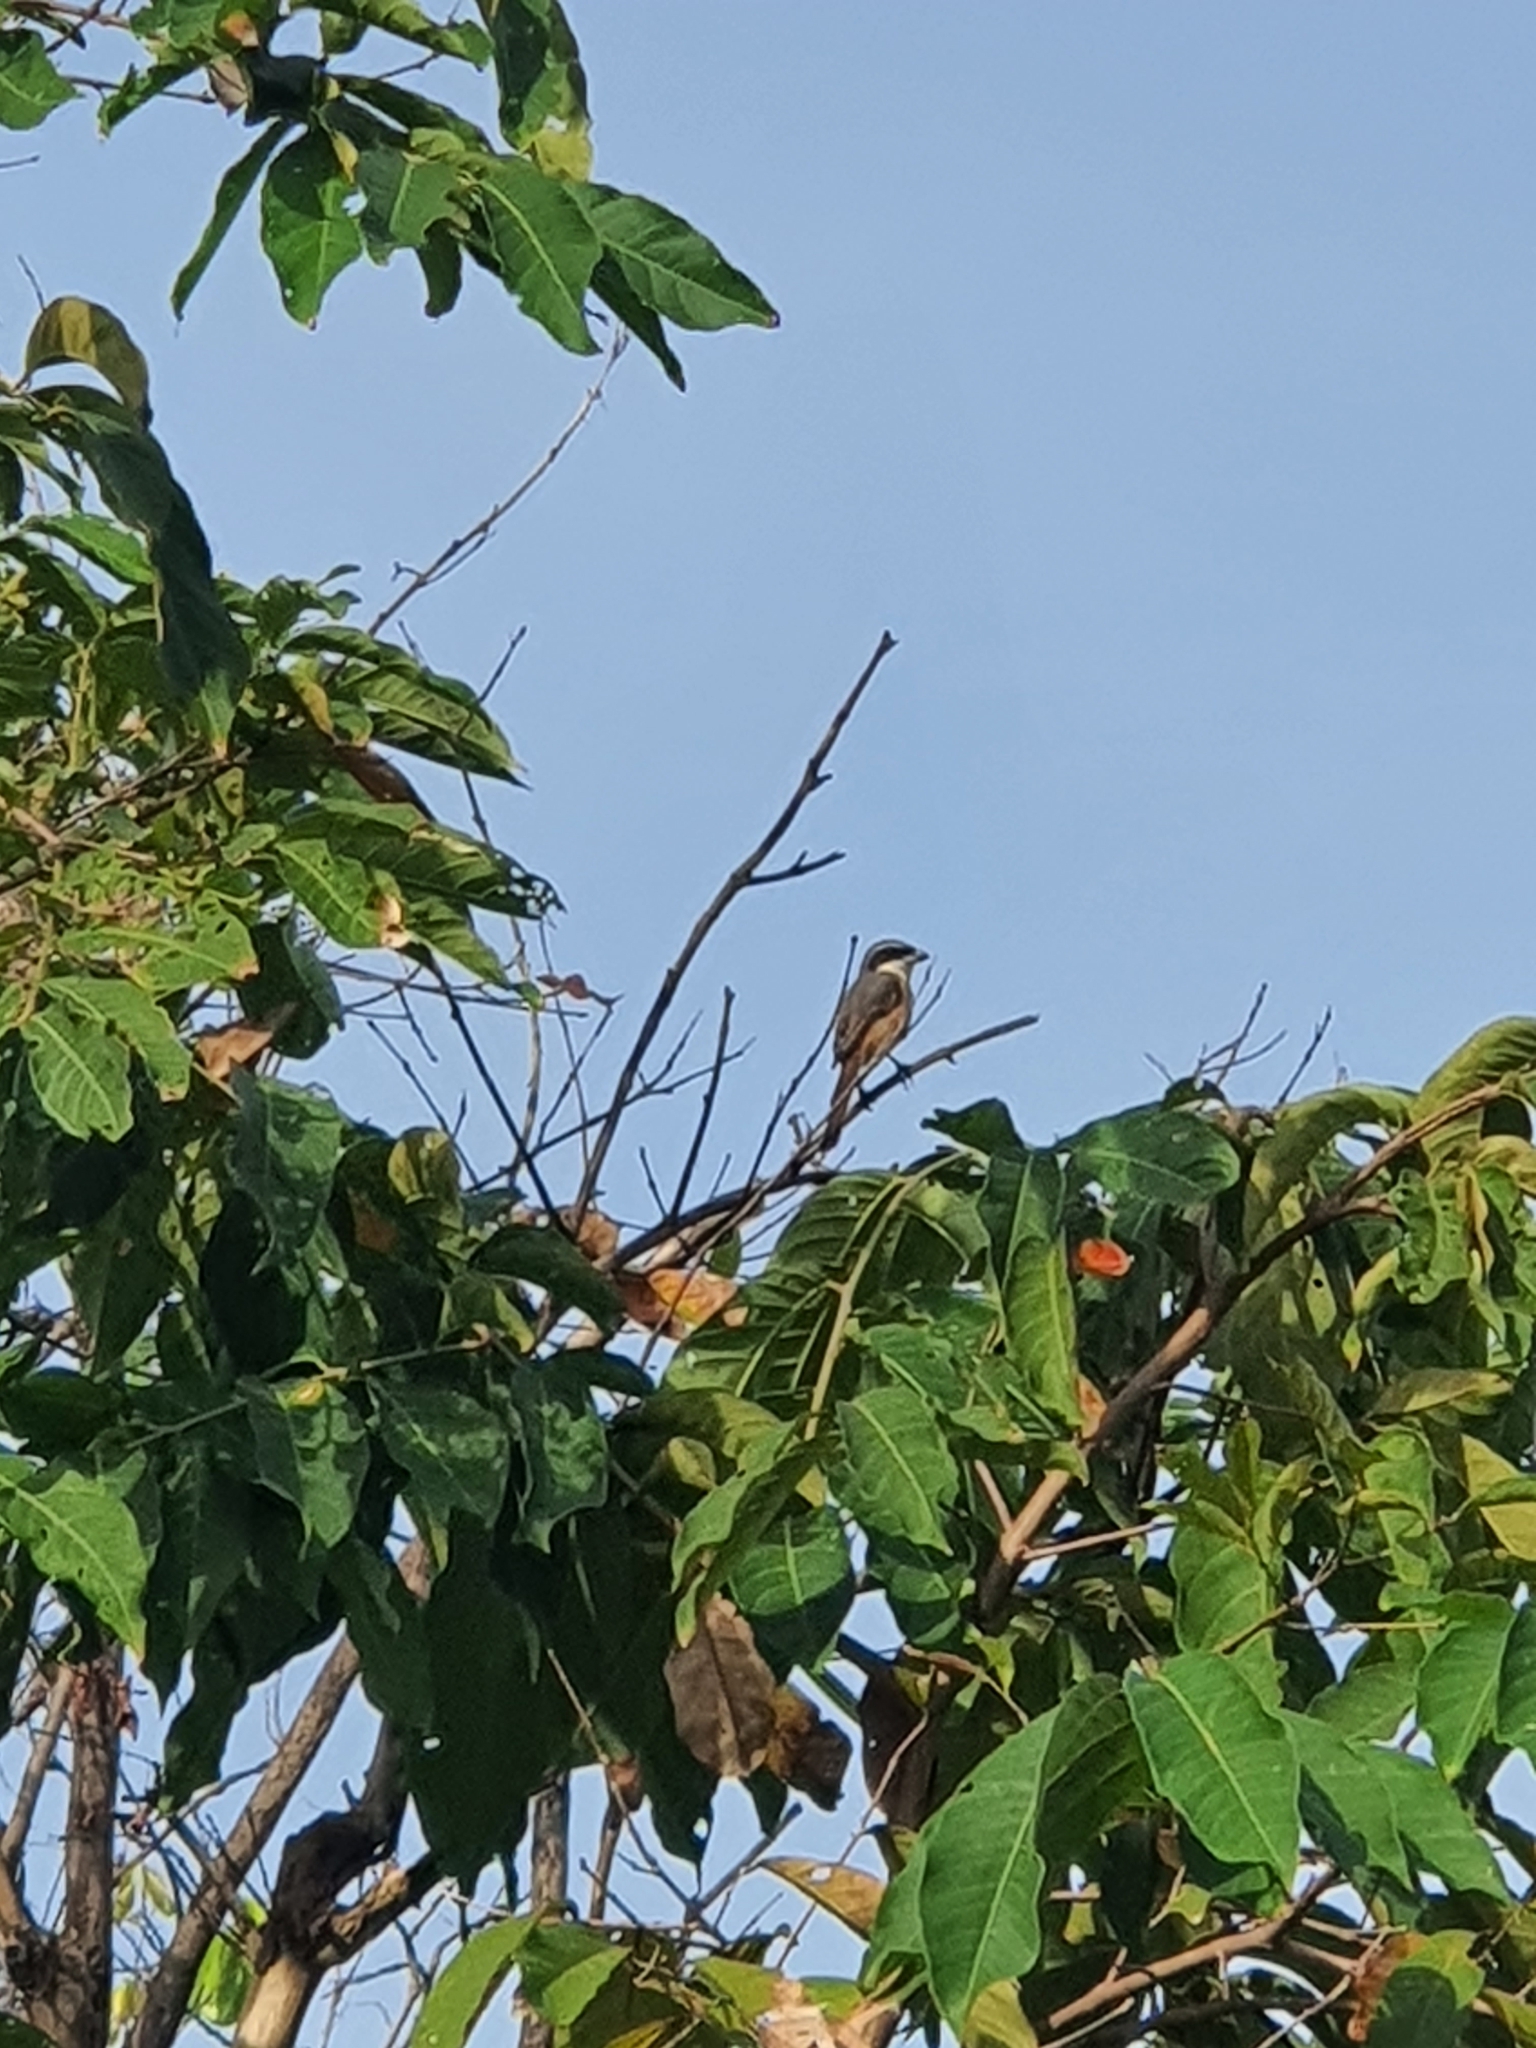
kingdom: Animalia
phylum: Chordata
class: Aves
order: Passeriformes
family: Laniidae
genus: Lanius
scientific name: Lanius tephronotus
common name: Grey-backed shrike
